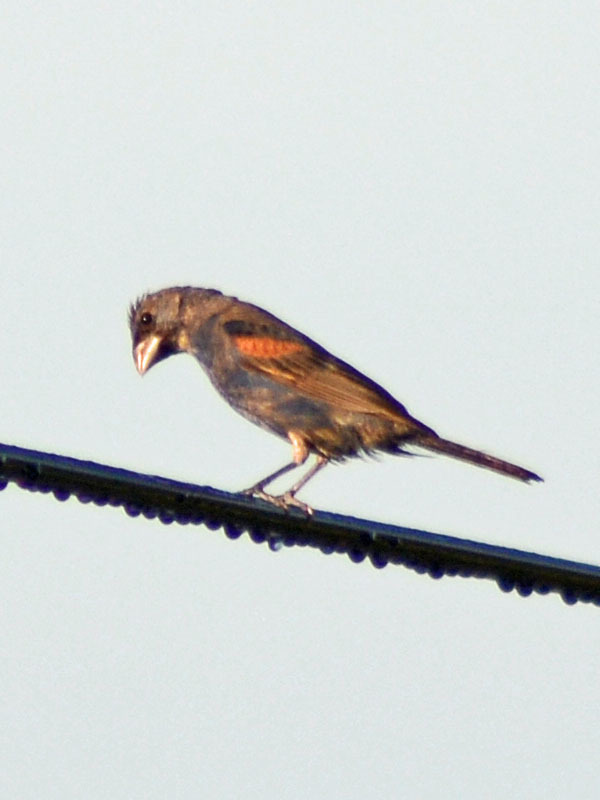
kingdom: Animalia
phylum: Chordata
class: Aves
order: Passeriformes
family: Cardinalidae
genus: Passerina
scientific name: Passerina caerulea
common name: Blue grosbeak
